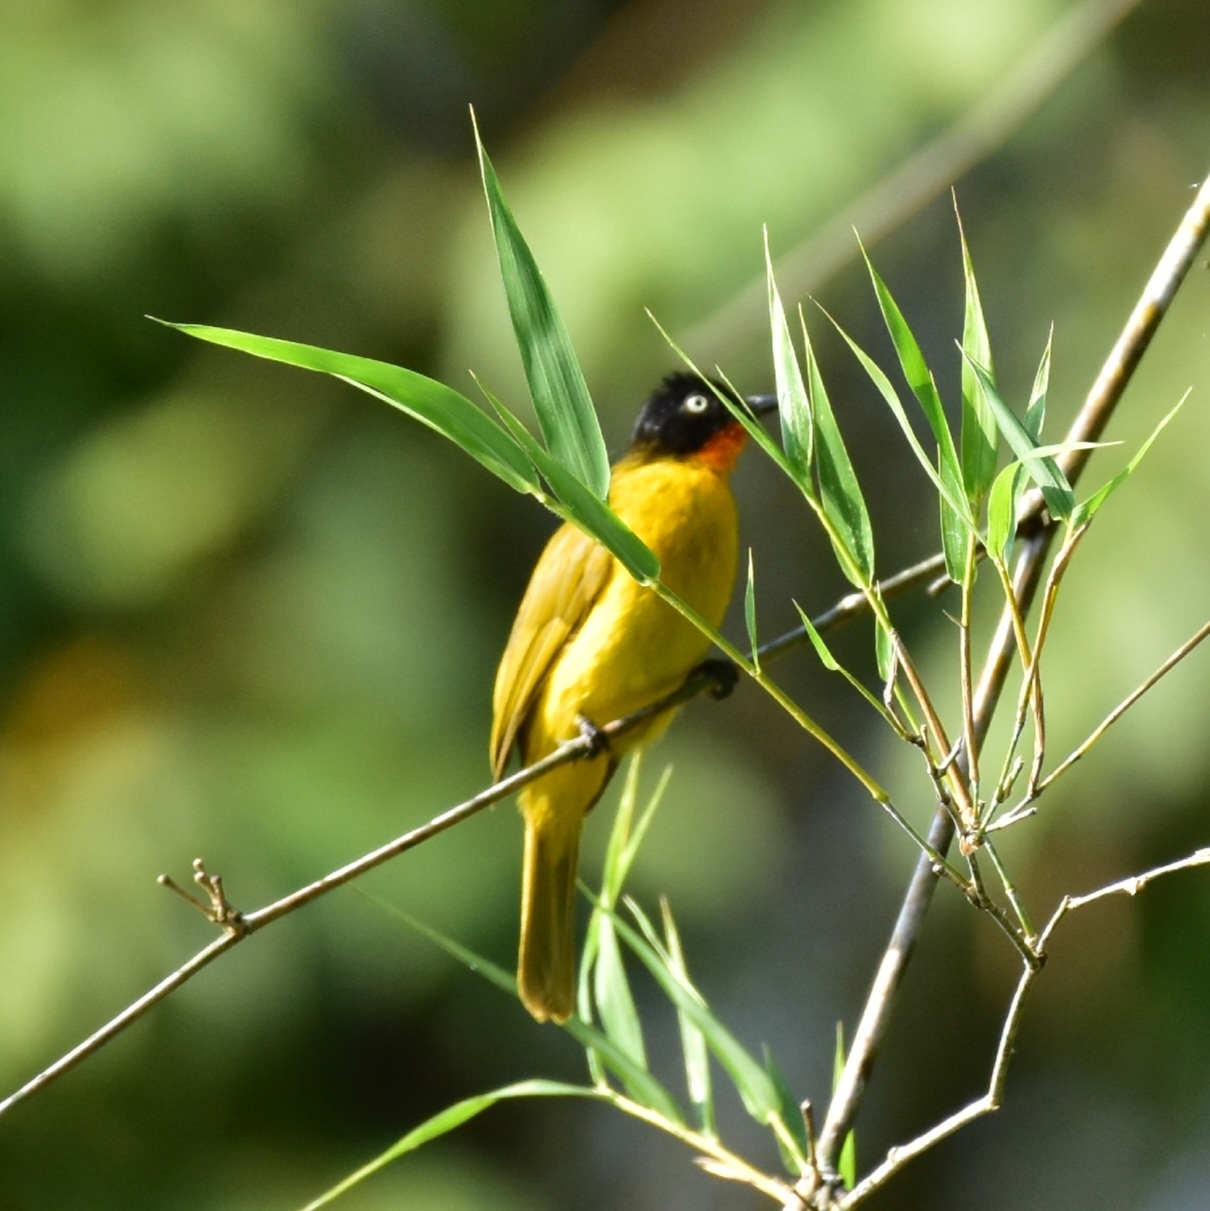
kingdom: Animalia
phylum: Chordata
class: Aves
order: Passeriformes
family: Pycnonotidae
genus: Pycnonotus
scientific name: Pycnonotus gularis
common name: Flame-throated bulbul
